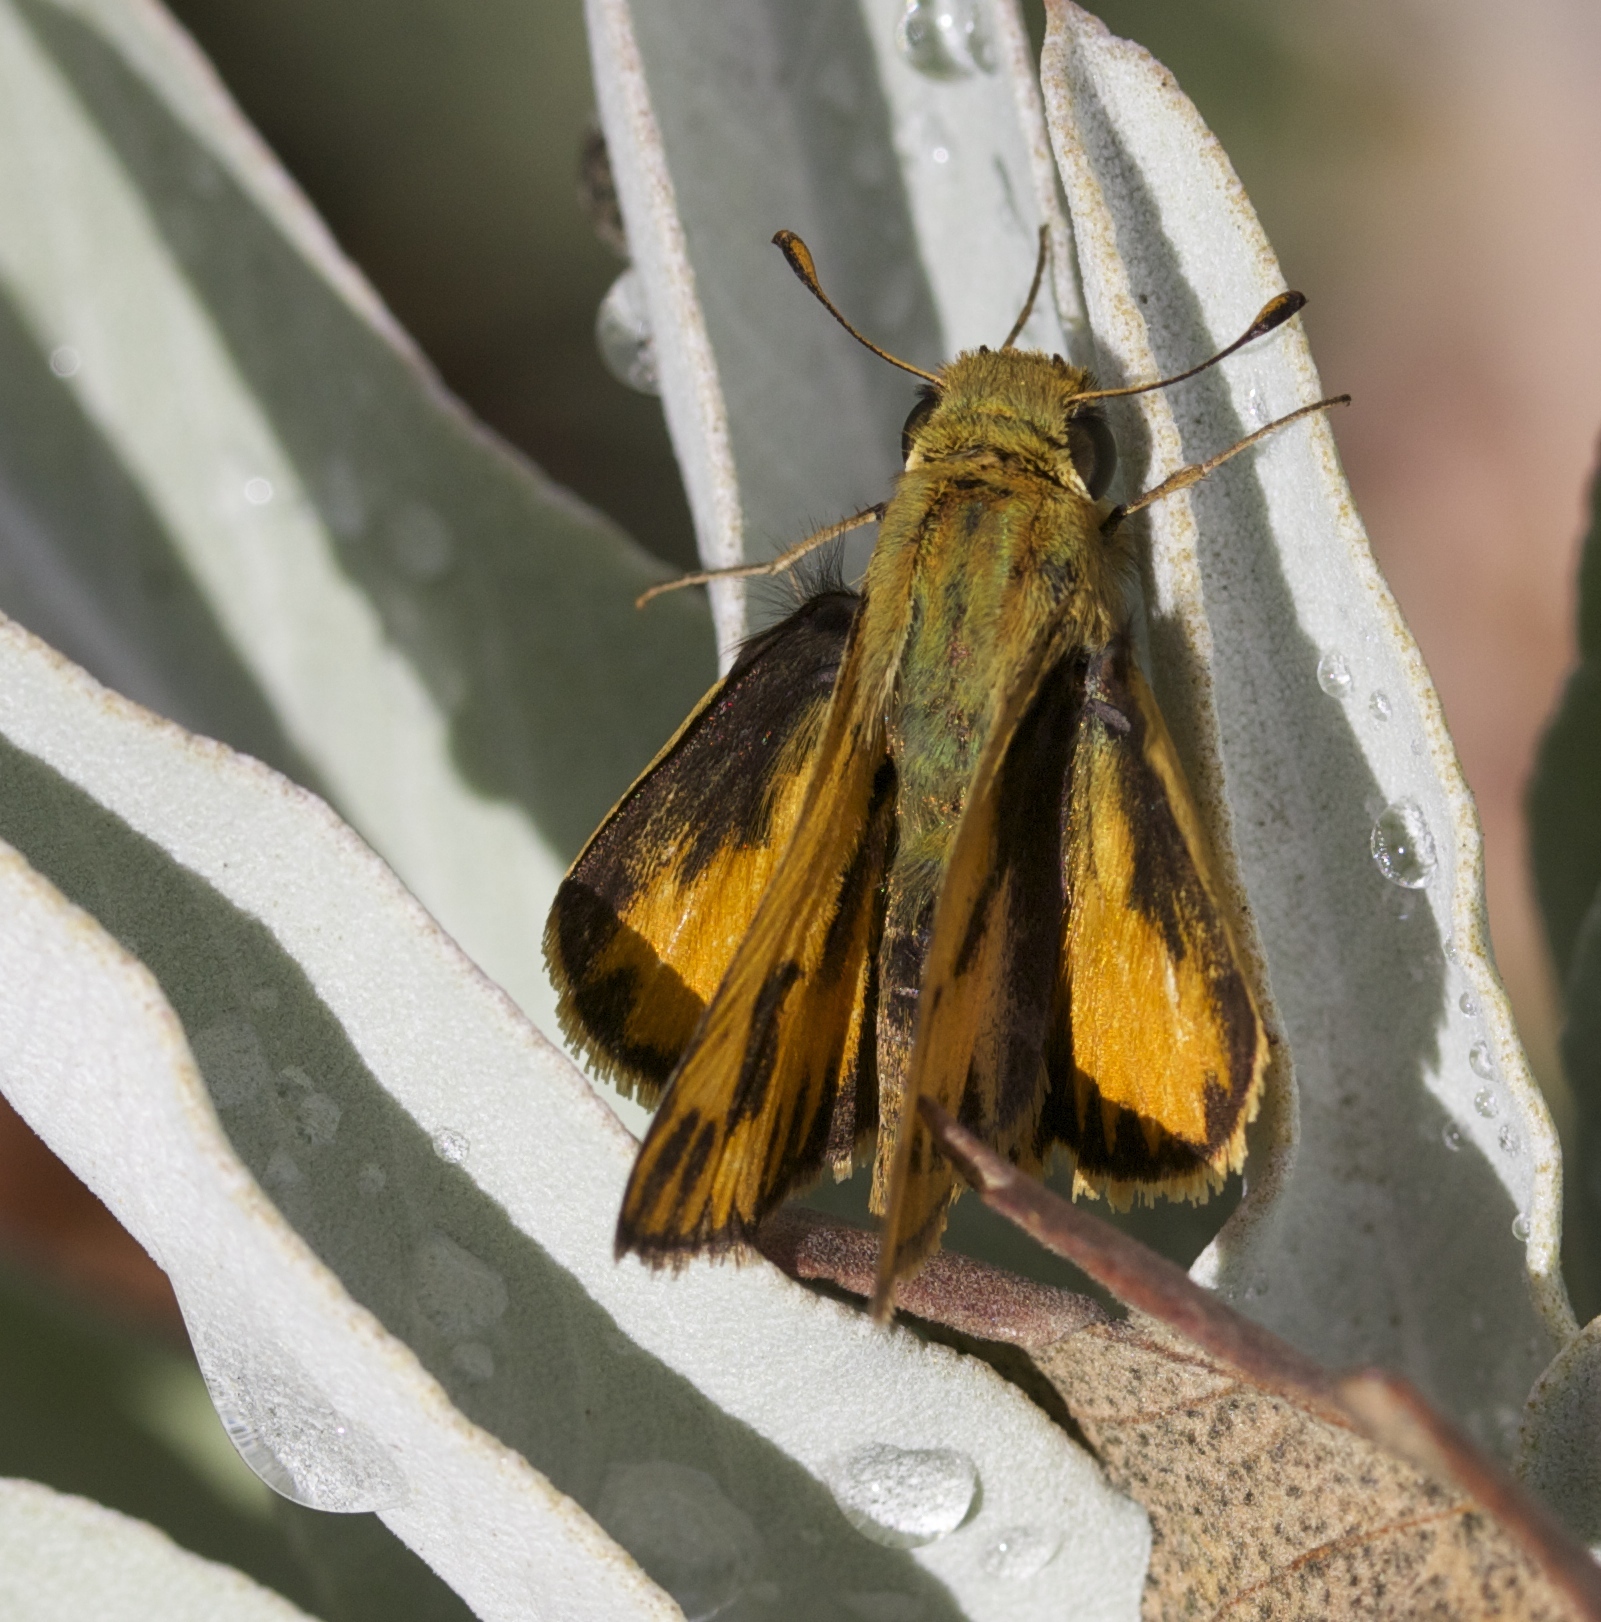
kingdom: Animalia
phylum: Arthropoda
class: Insecta
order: Lepidoptera
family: Hesperiidae
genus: Hylephila
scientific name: Hylephila phyleus
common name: Fiery skipper
